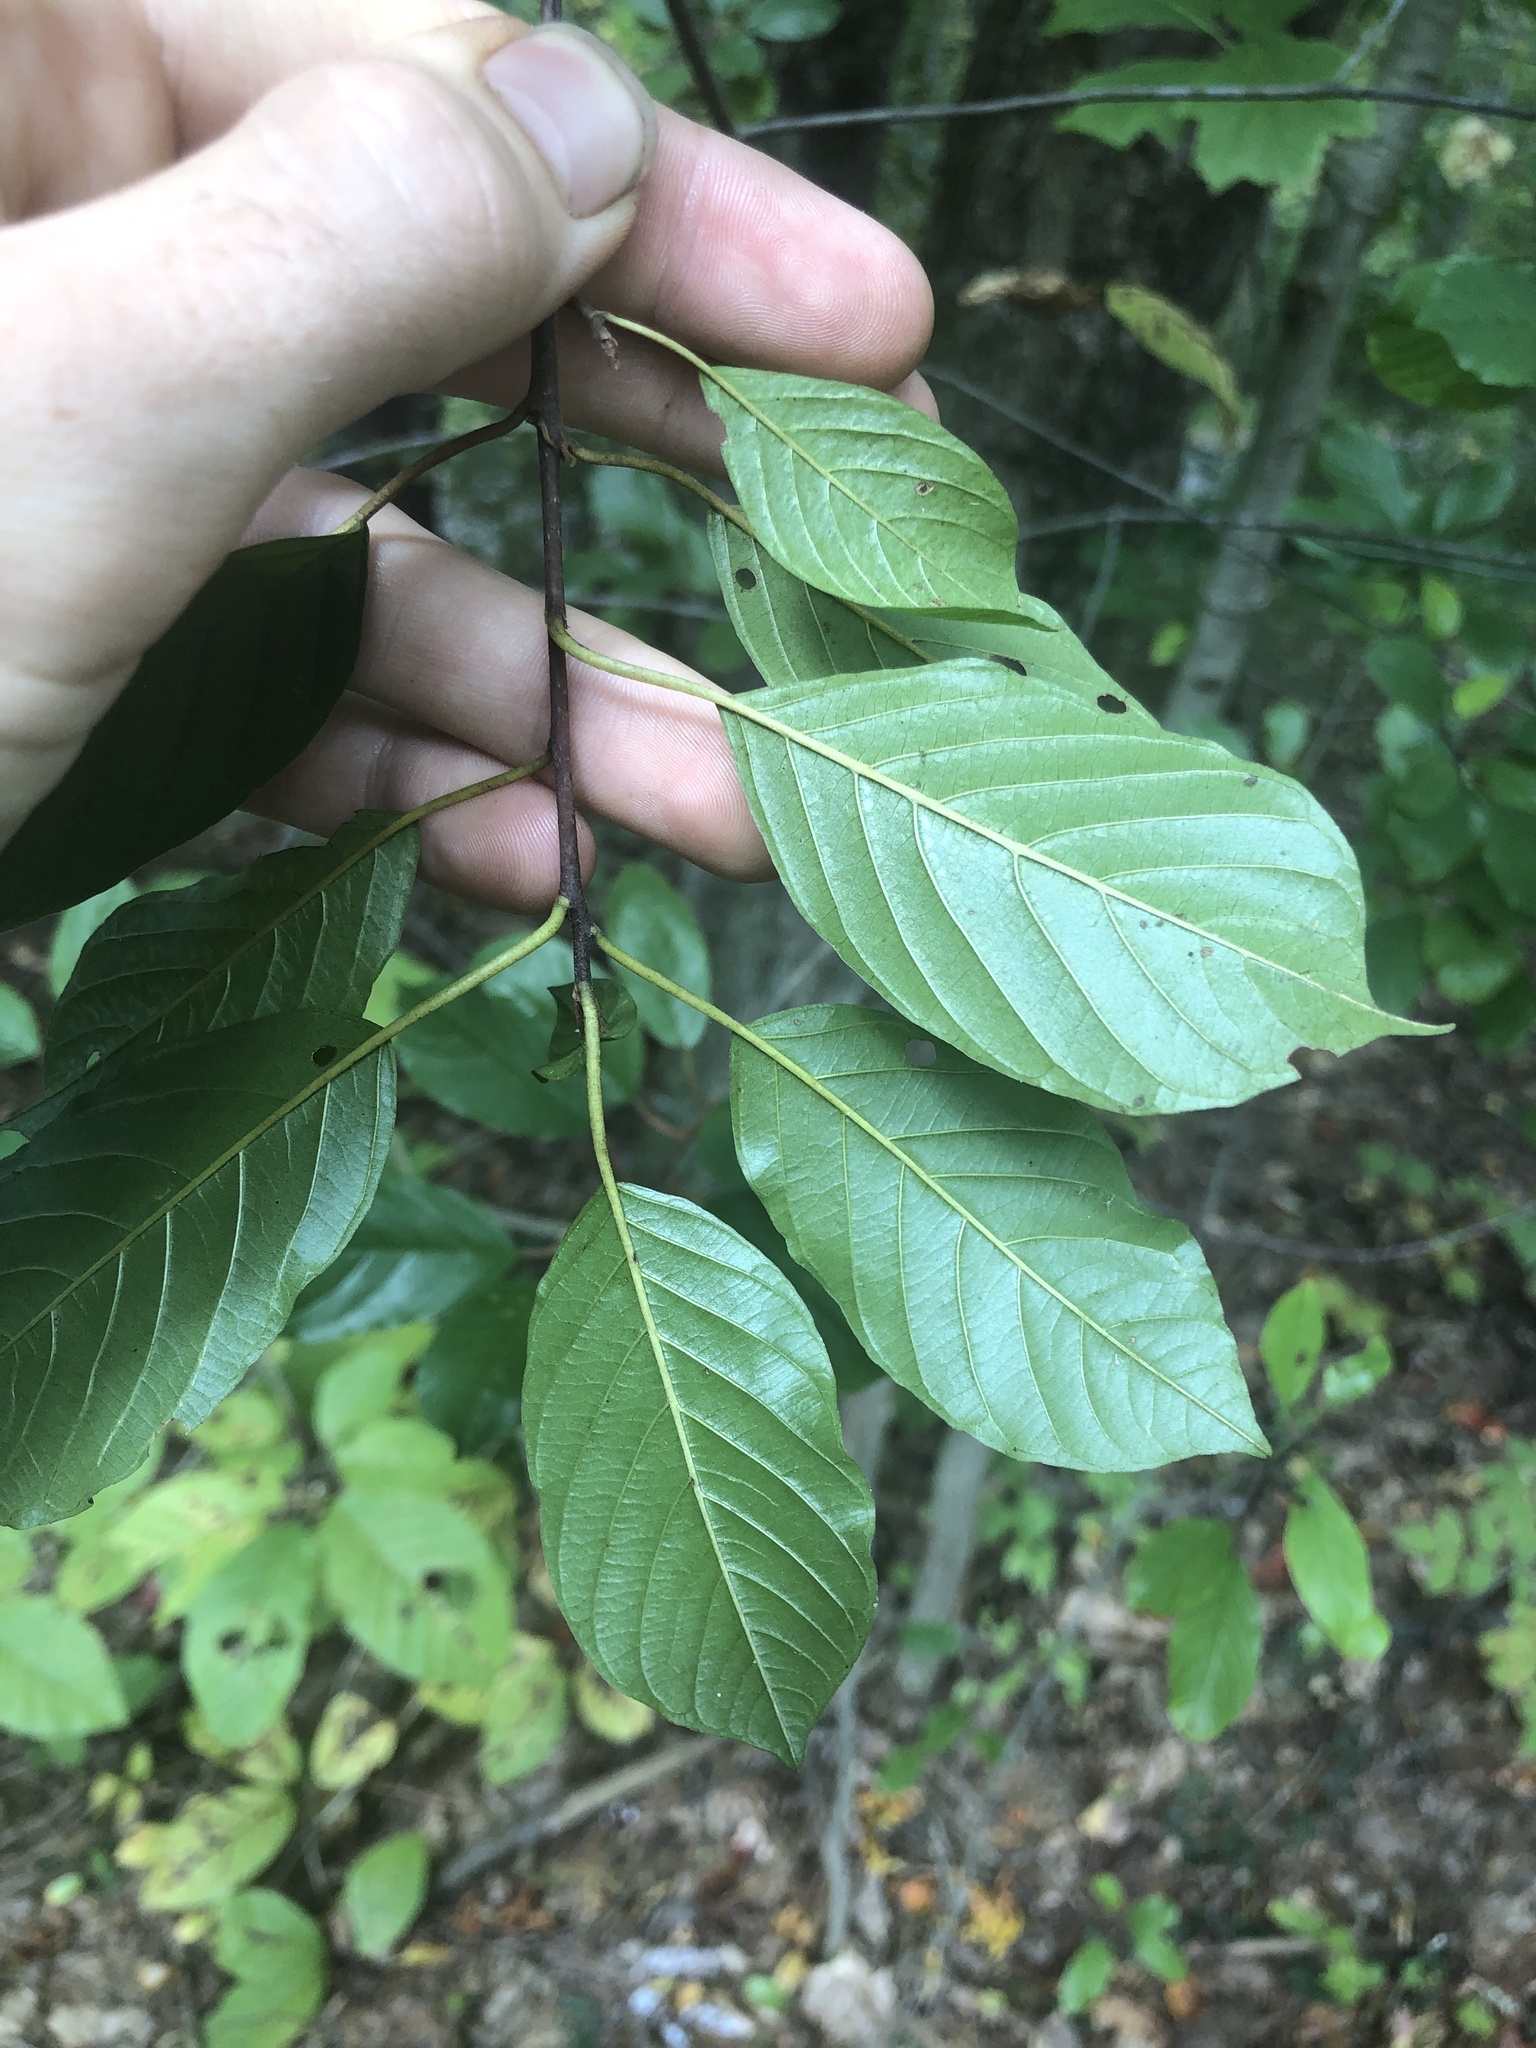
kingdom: Plantae
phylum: Tracheophyta
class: Magnoliopsida
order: Rosales
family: Rhamnaceae
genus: Frangula
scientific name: Frangula alnus
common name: Alder buckthorn
